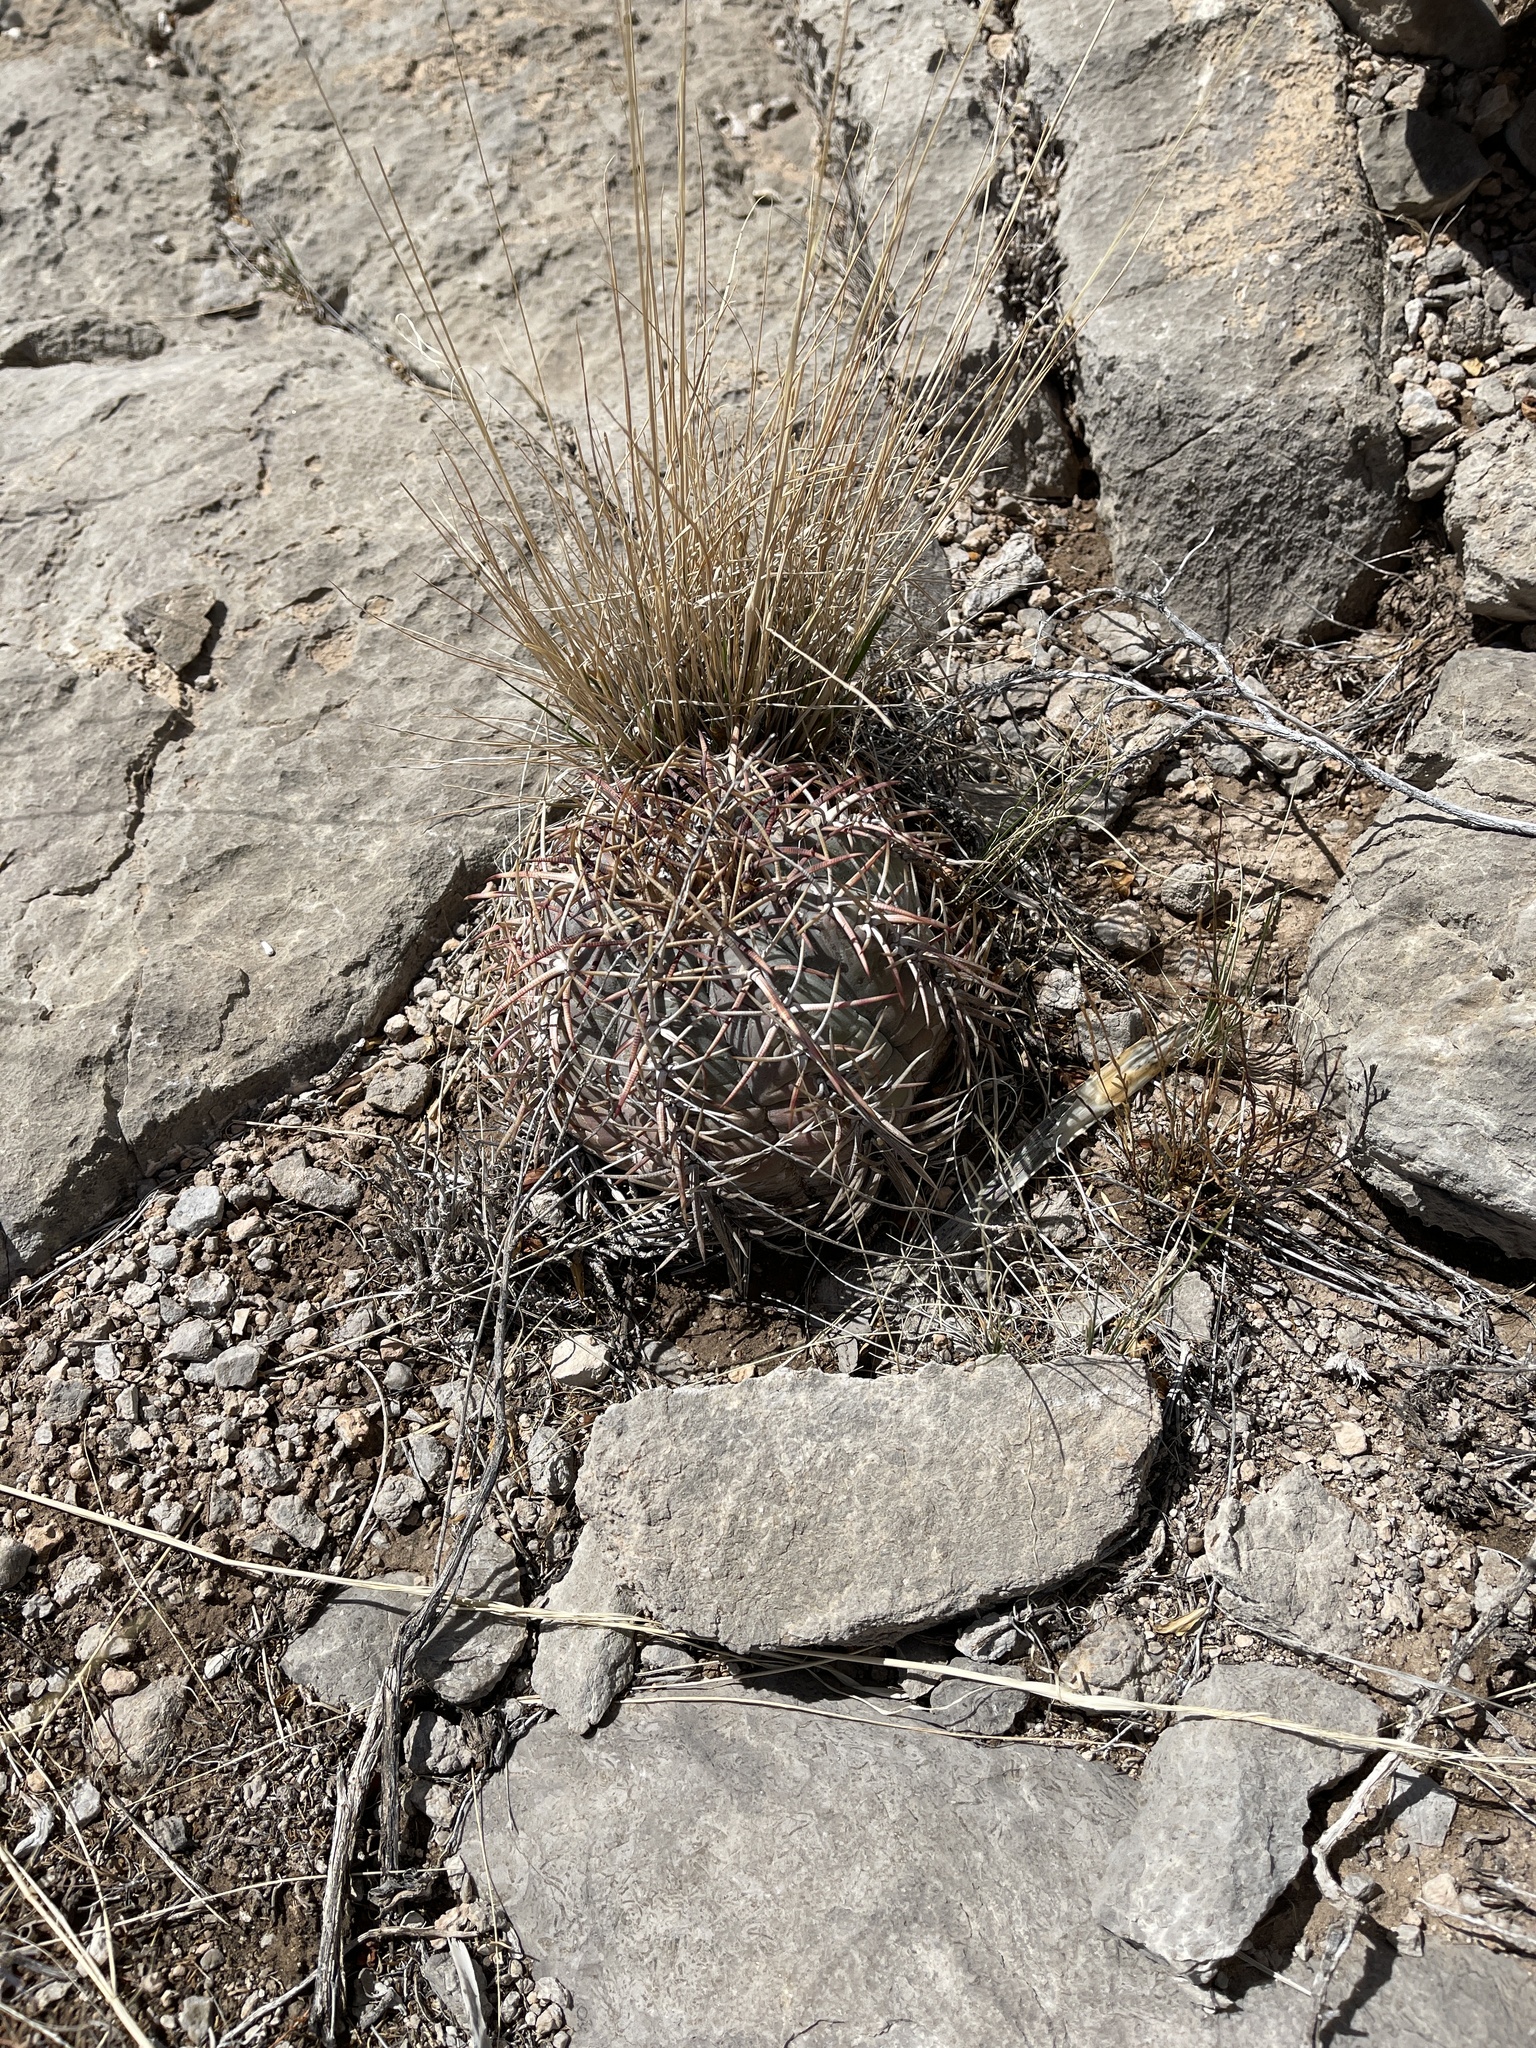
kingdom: Plantae
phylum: Tracheophyta
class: Magnoliopsida
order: Caryophyllales
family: Cactaceae
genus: Echinocactus
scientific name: Echinocactus horizonthalonius
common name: Devilshead
